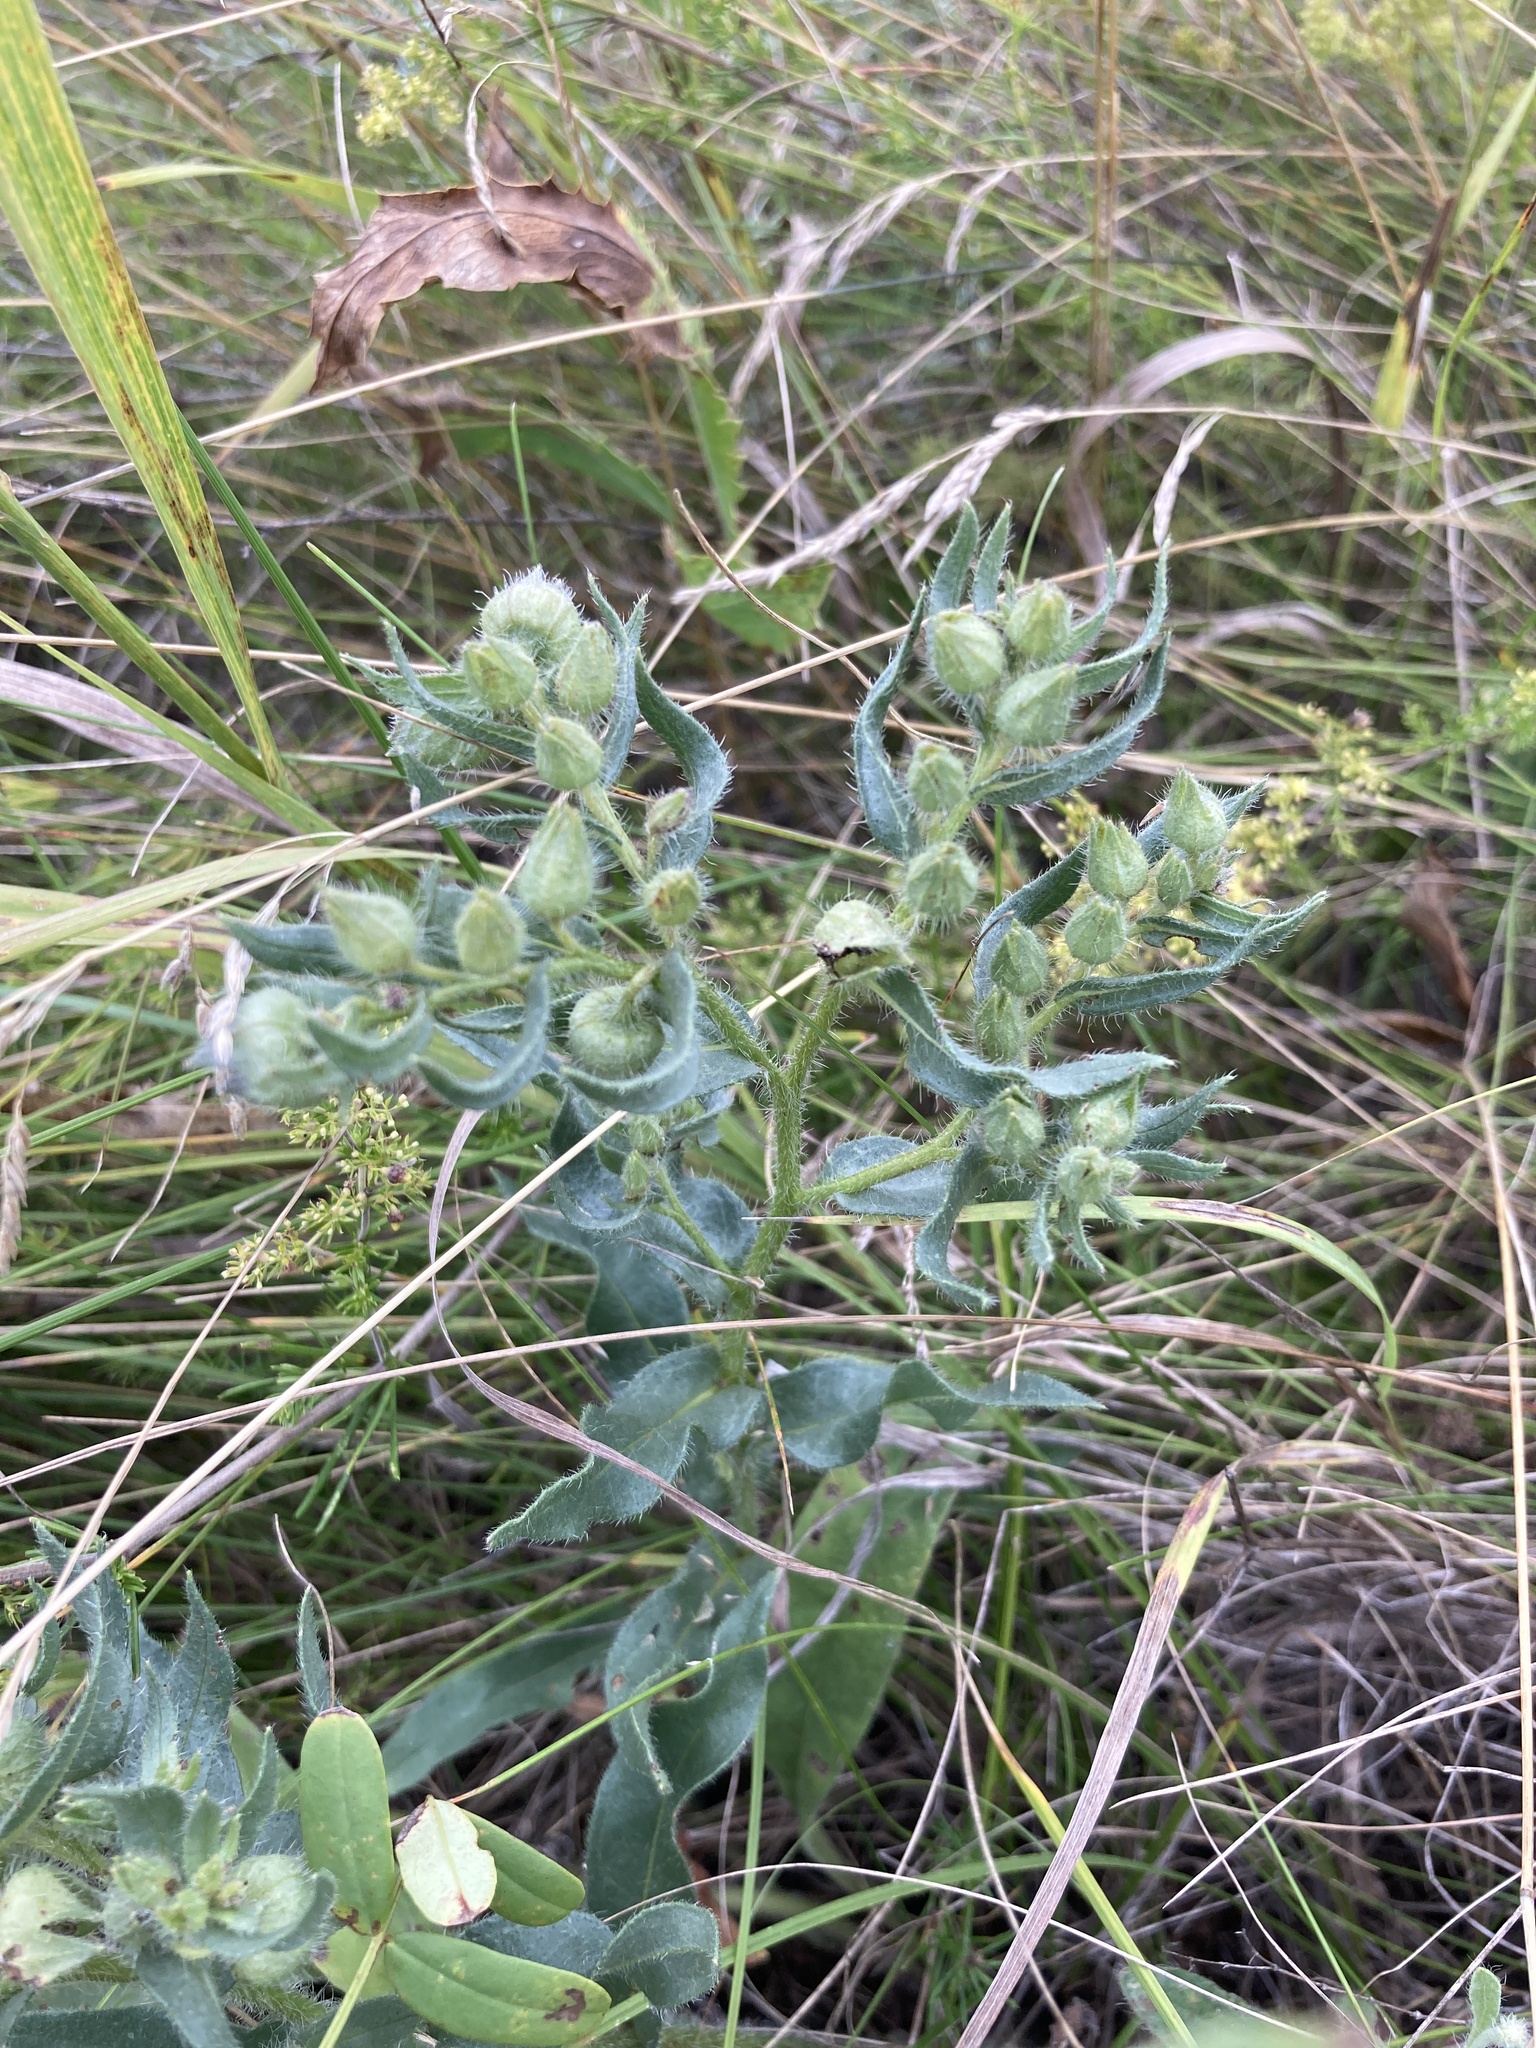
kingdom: Plantae
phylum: Tracheophyta
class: Magnoliopsida
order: Boraginales
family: Boraginaceae
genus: Nonea
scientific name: Nonea pulla
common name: Brown nonea
